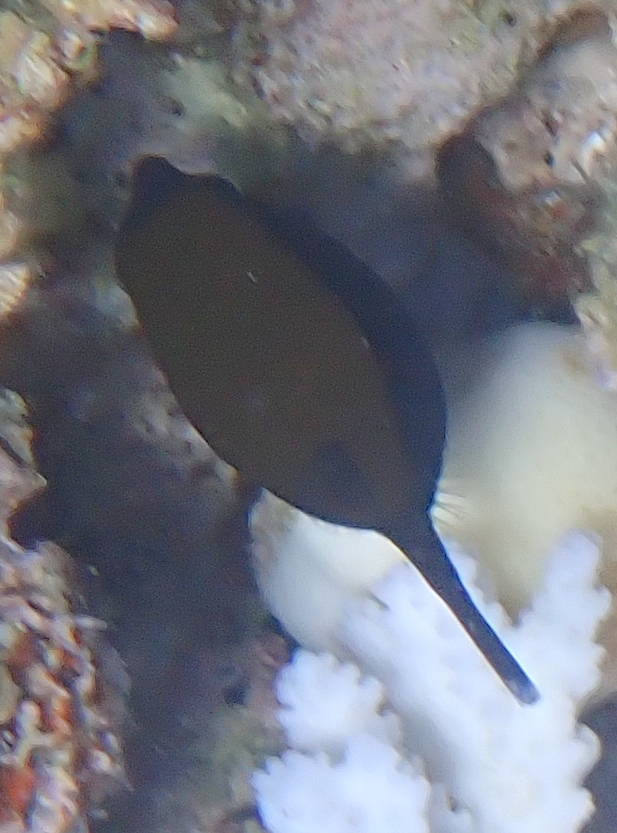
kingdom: Animalia
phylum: Chordata
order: Tetraodontiformes
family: Ostraciidae
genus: Ostracion
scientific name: Ostracion cyanurus
